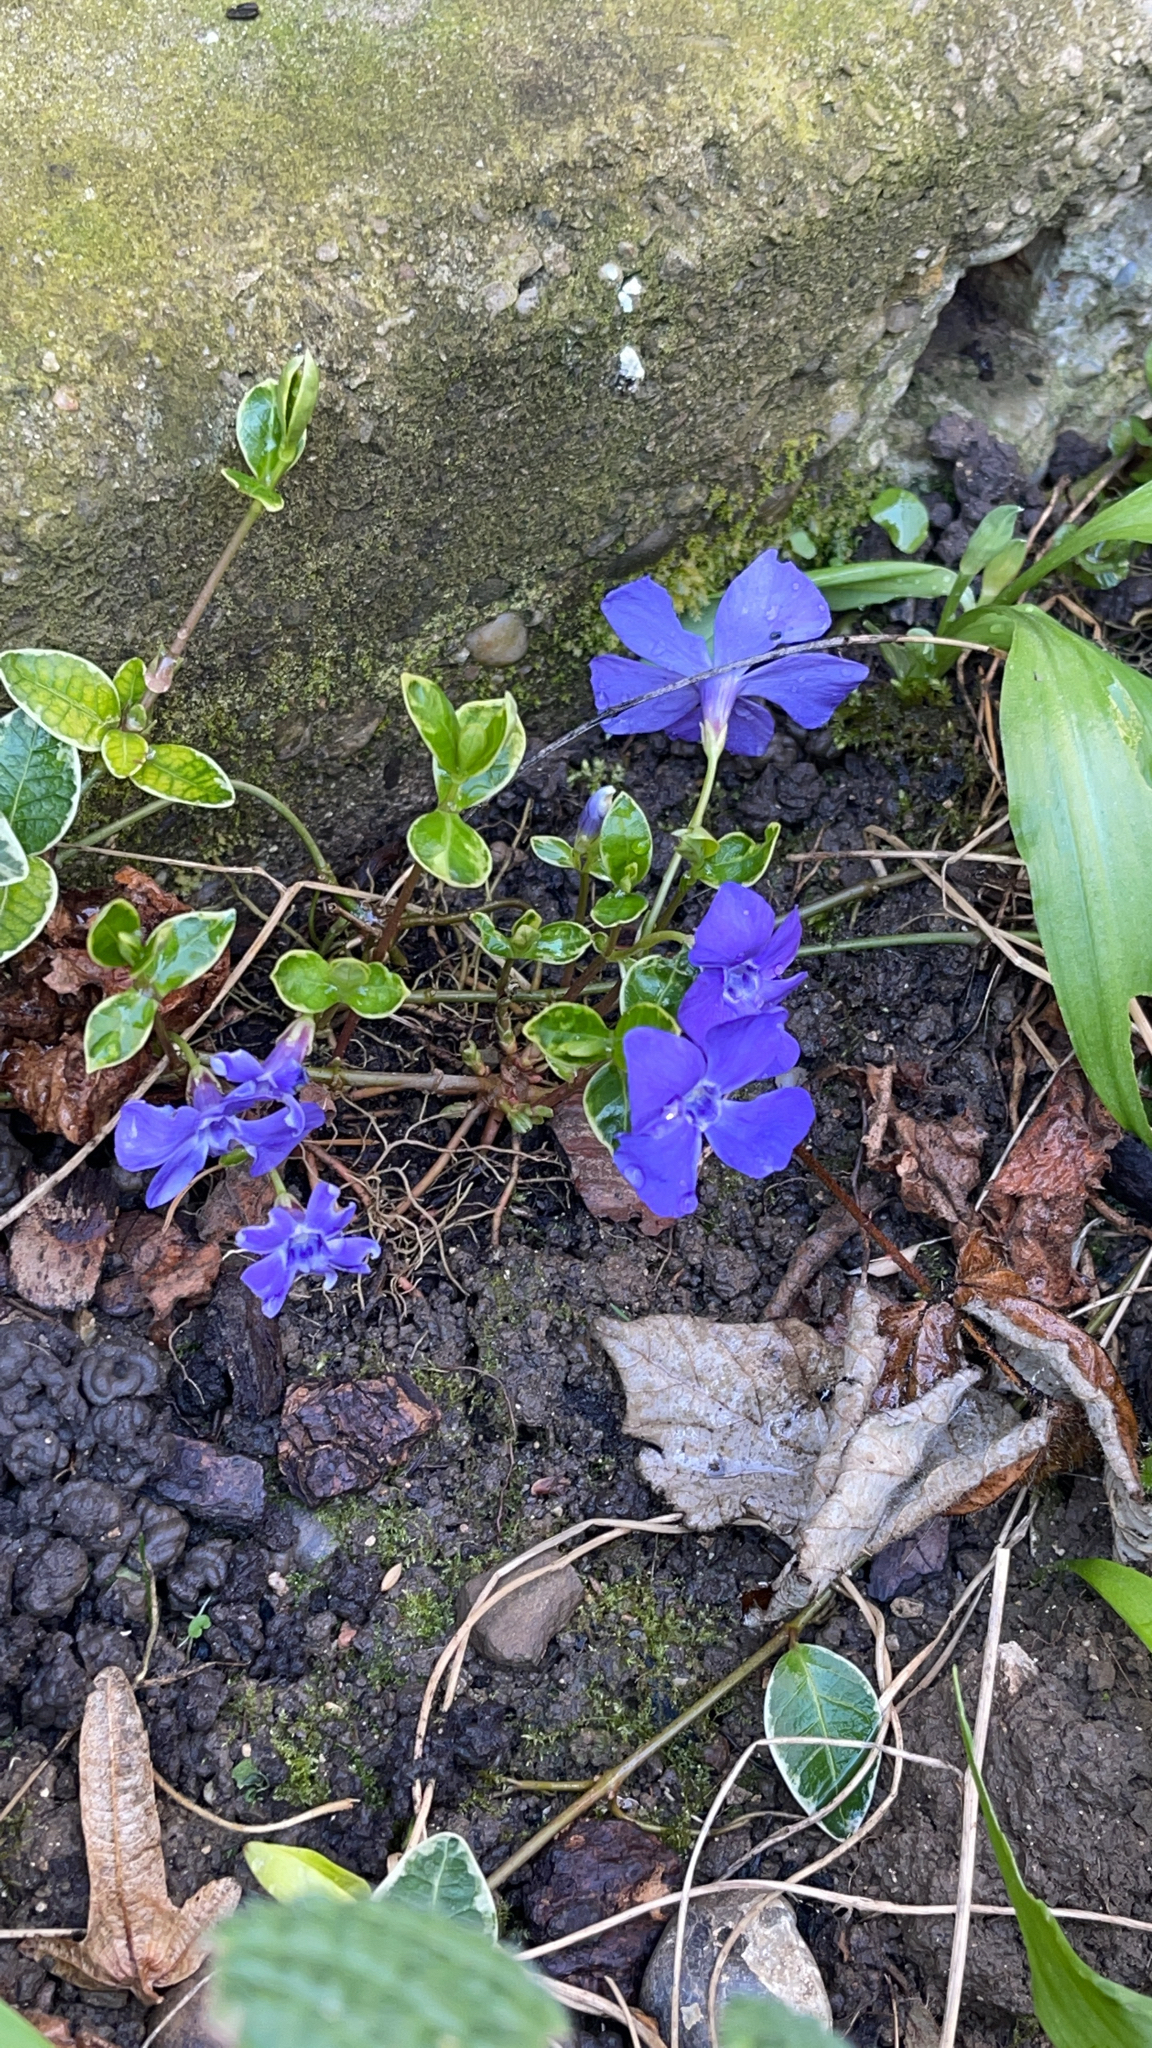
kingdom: Plantae
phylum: Tracheophyta
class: Magnoliopsida
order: Gentianales
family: Apocynaceae
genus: Vinca
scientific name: Vinca minor
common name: Lesser periwinkle
